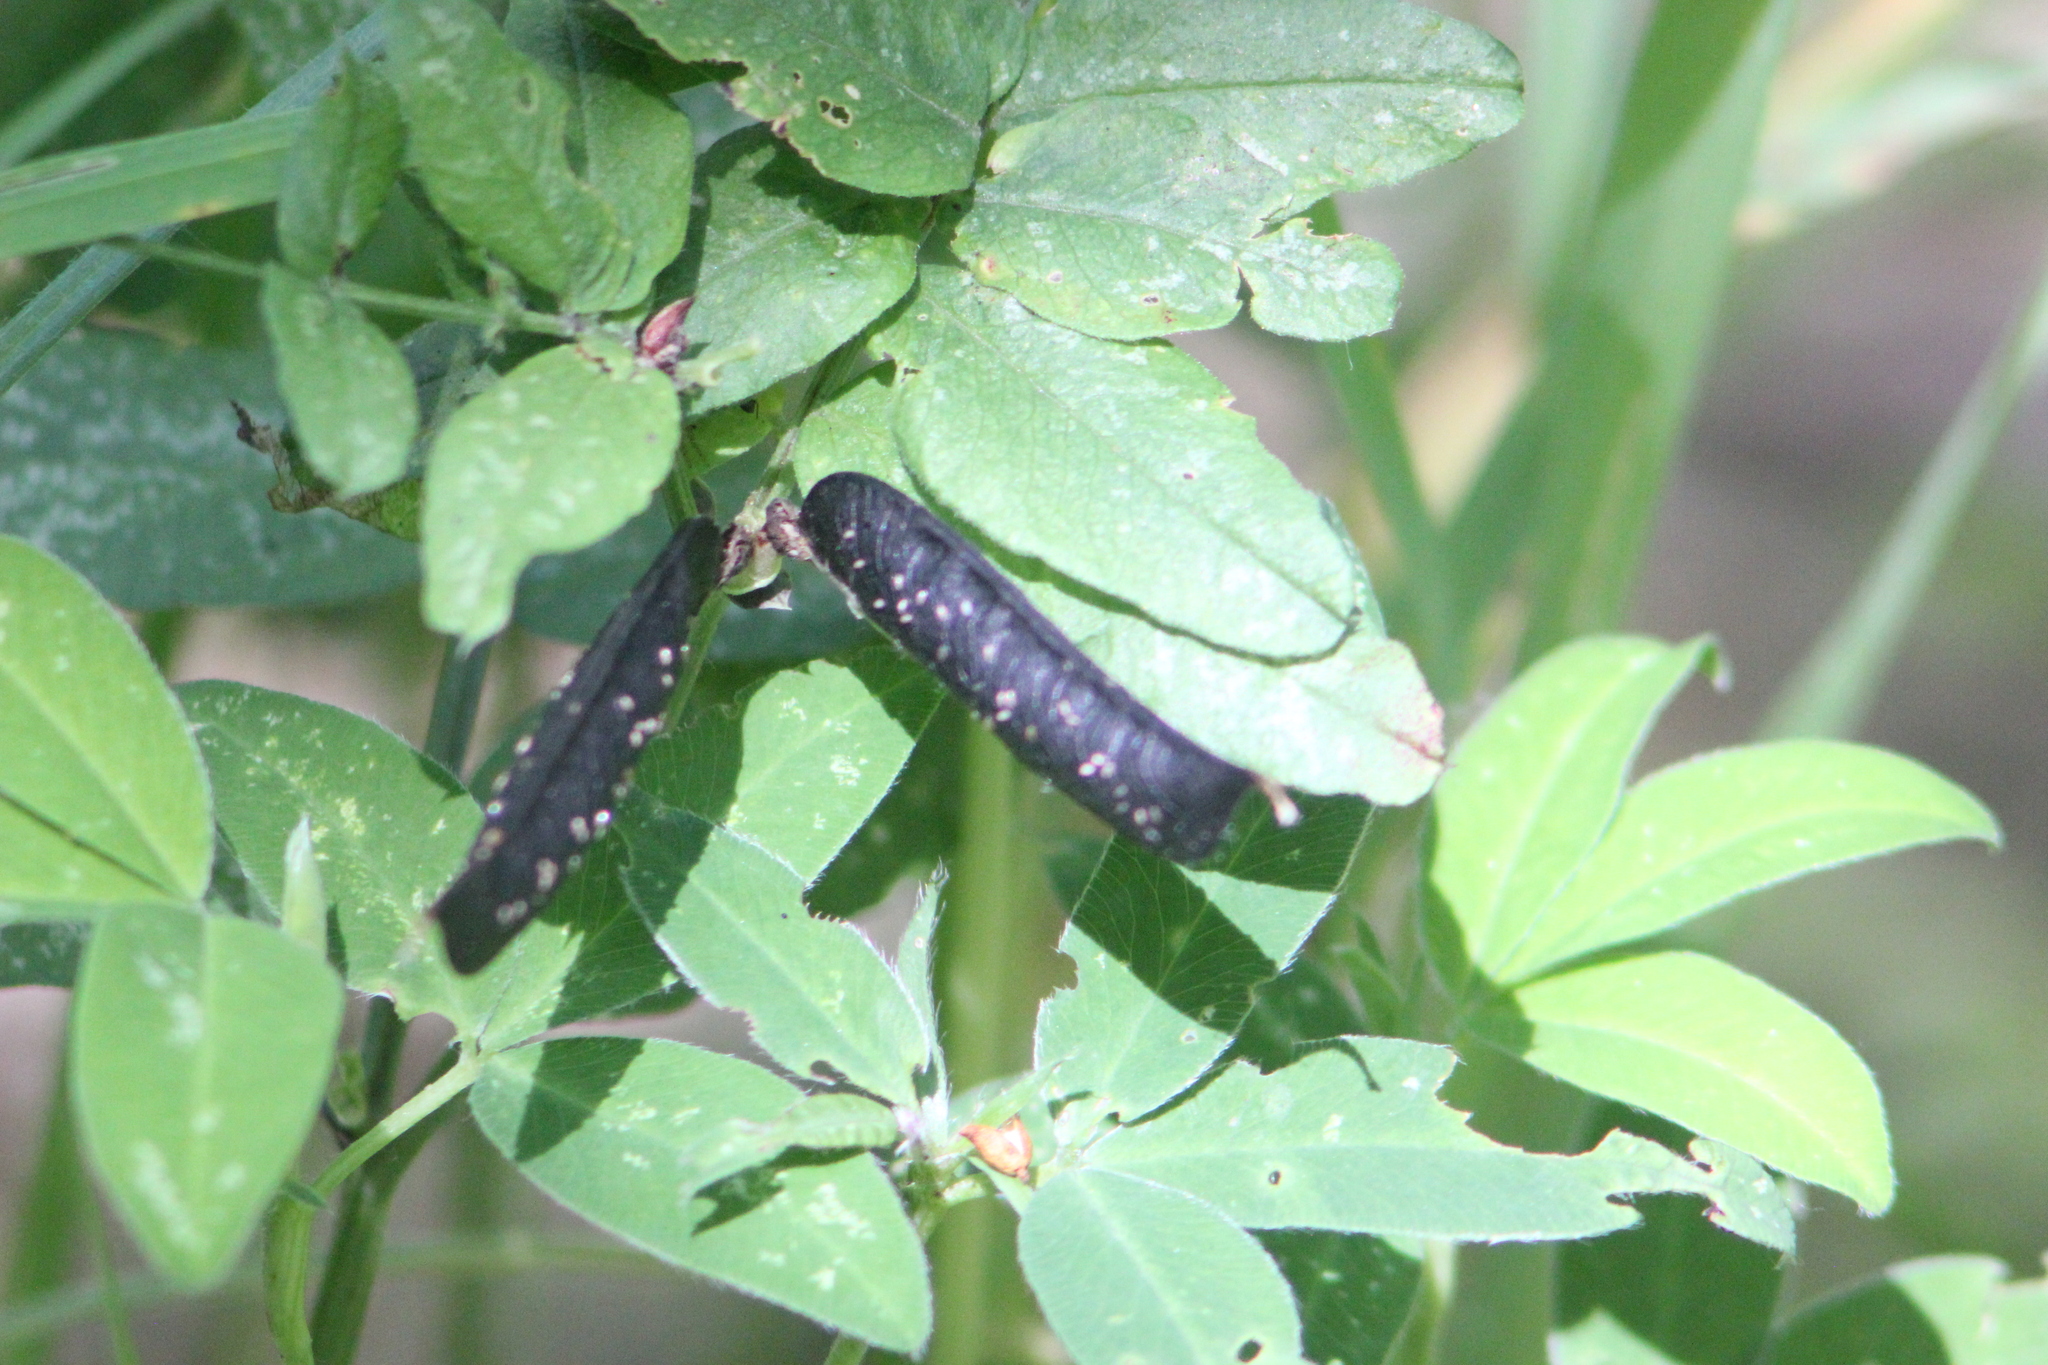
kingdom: Plantae
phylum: Tracheophyta
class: Magnoliopsida
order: Fabales
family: Fabaceae
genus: Vicia
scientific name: Vicia sepium
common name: Bush vetch
